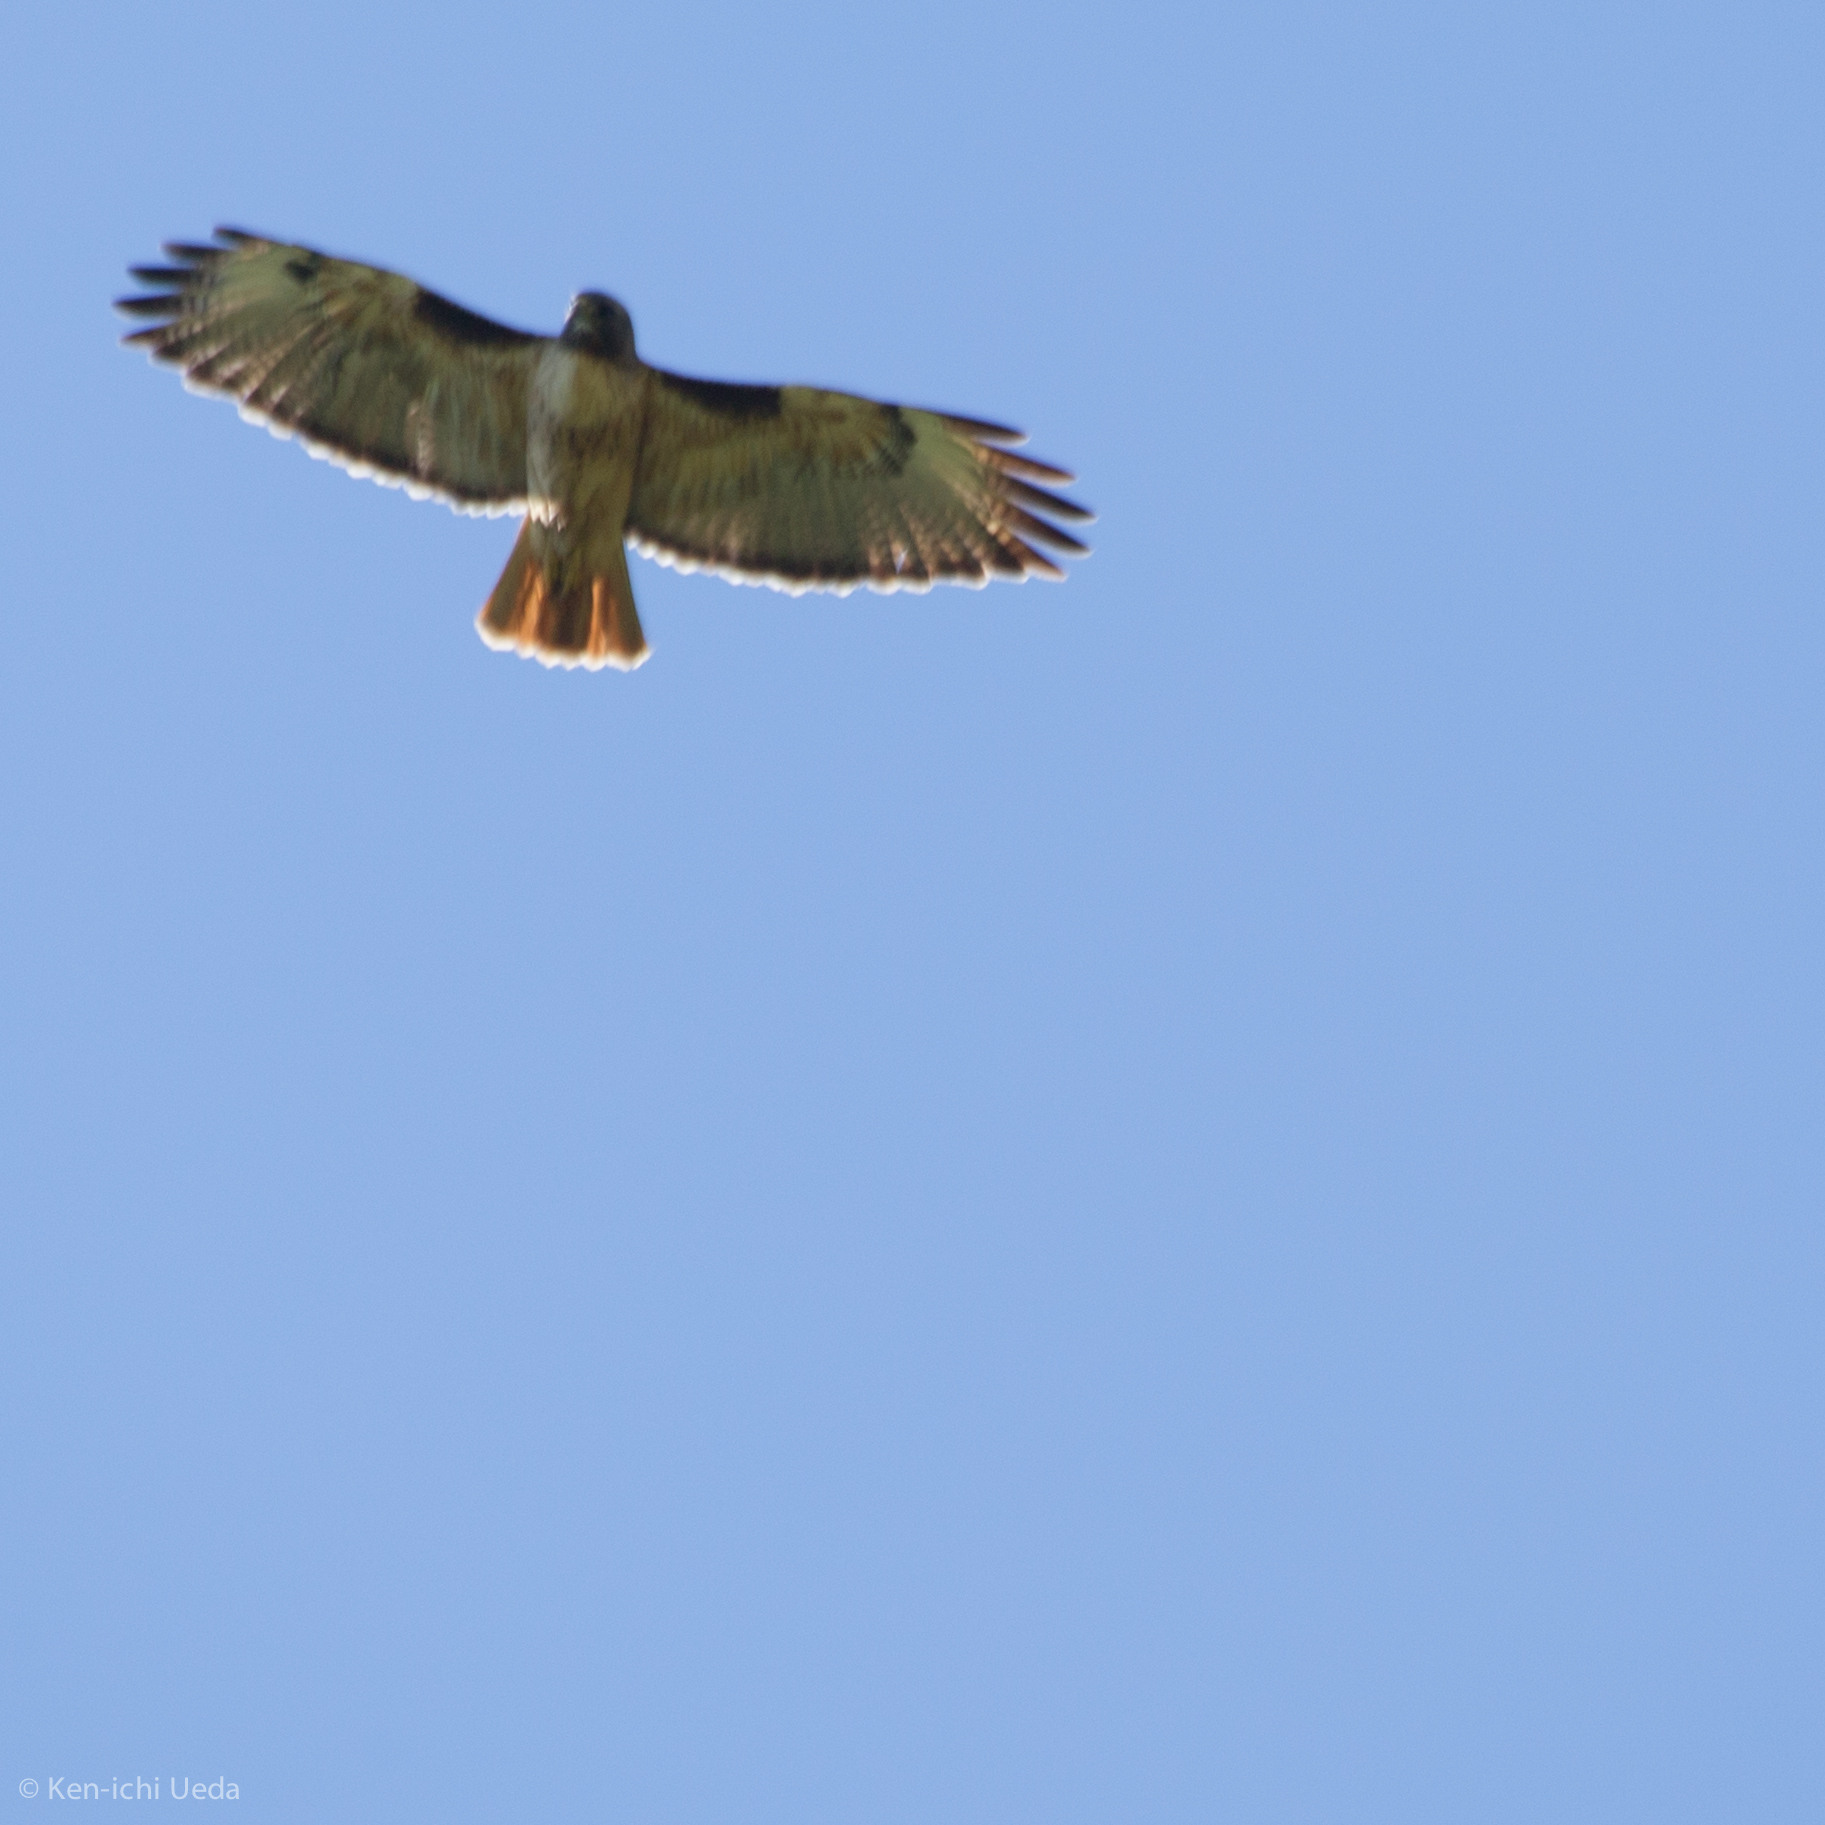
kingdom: Animalia
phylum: Chordata
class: Aves
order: Accipitriformes
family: Accipitridae
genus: Buteo
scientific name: Buteo jamaicensis
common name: Red-tailed hawk
